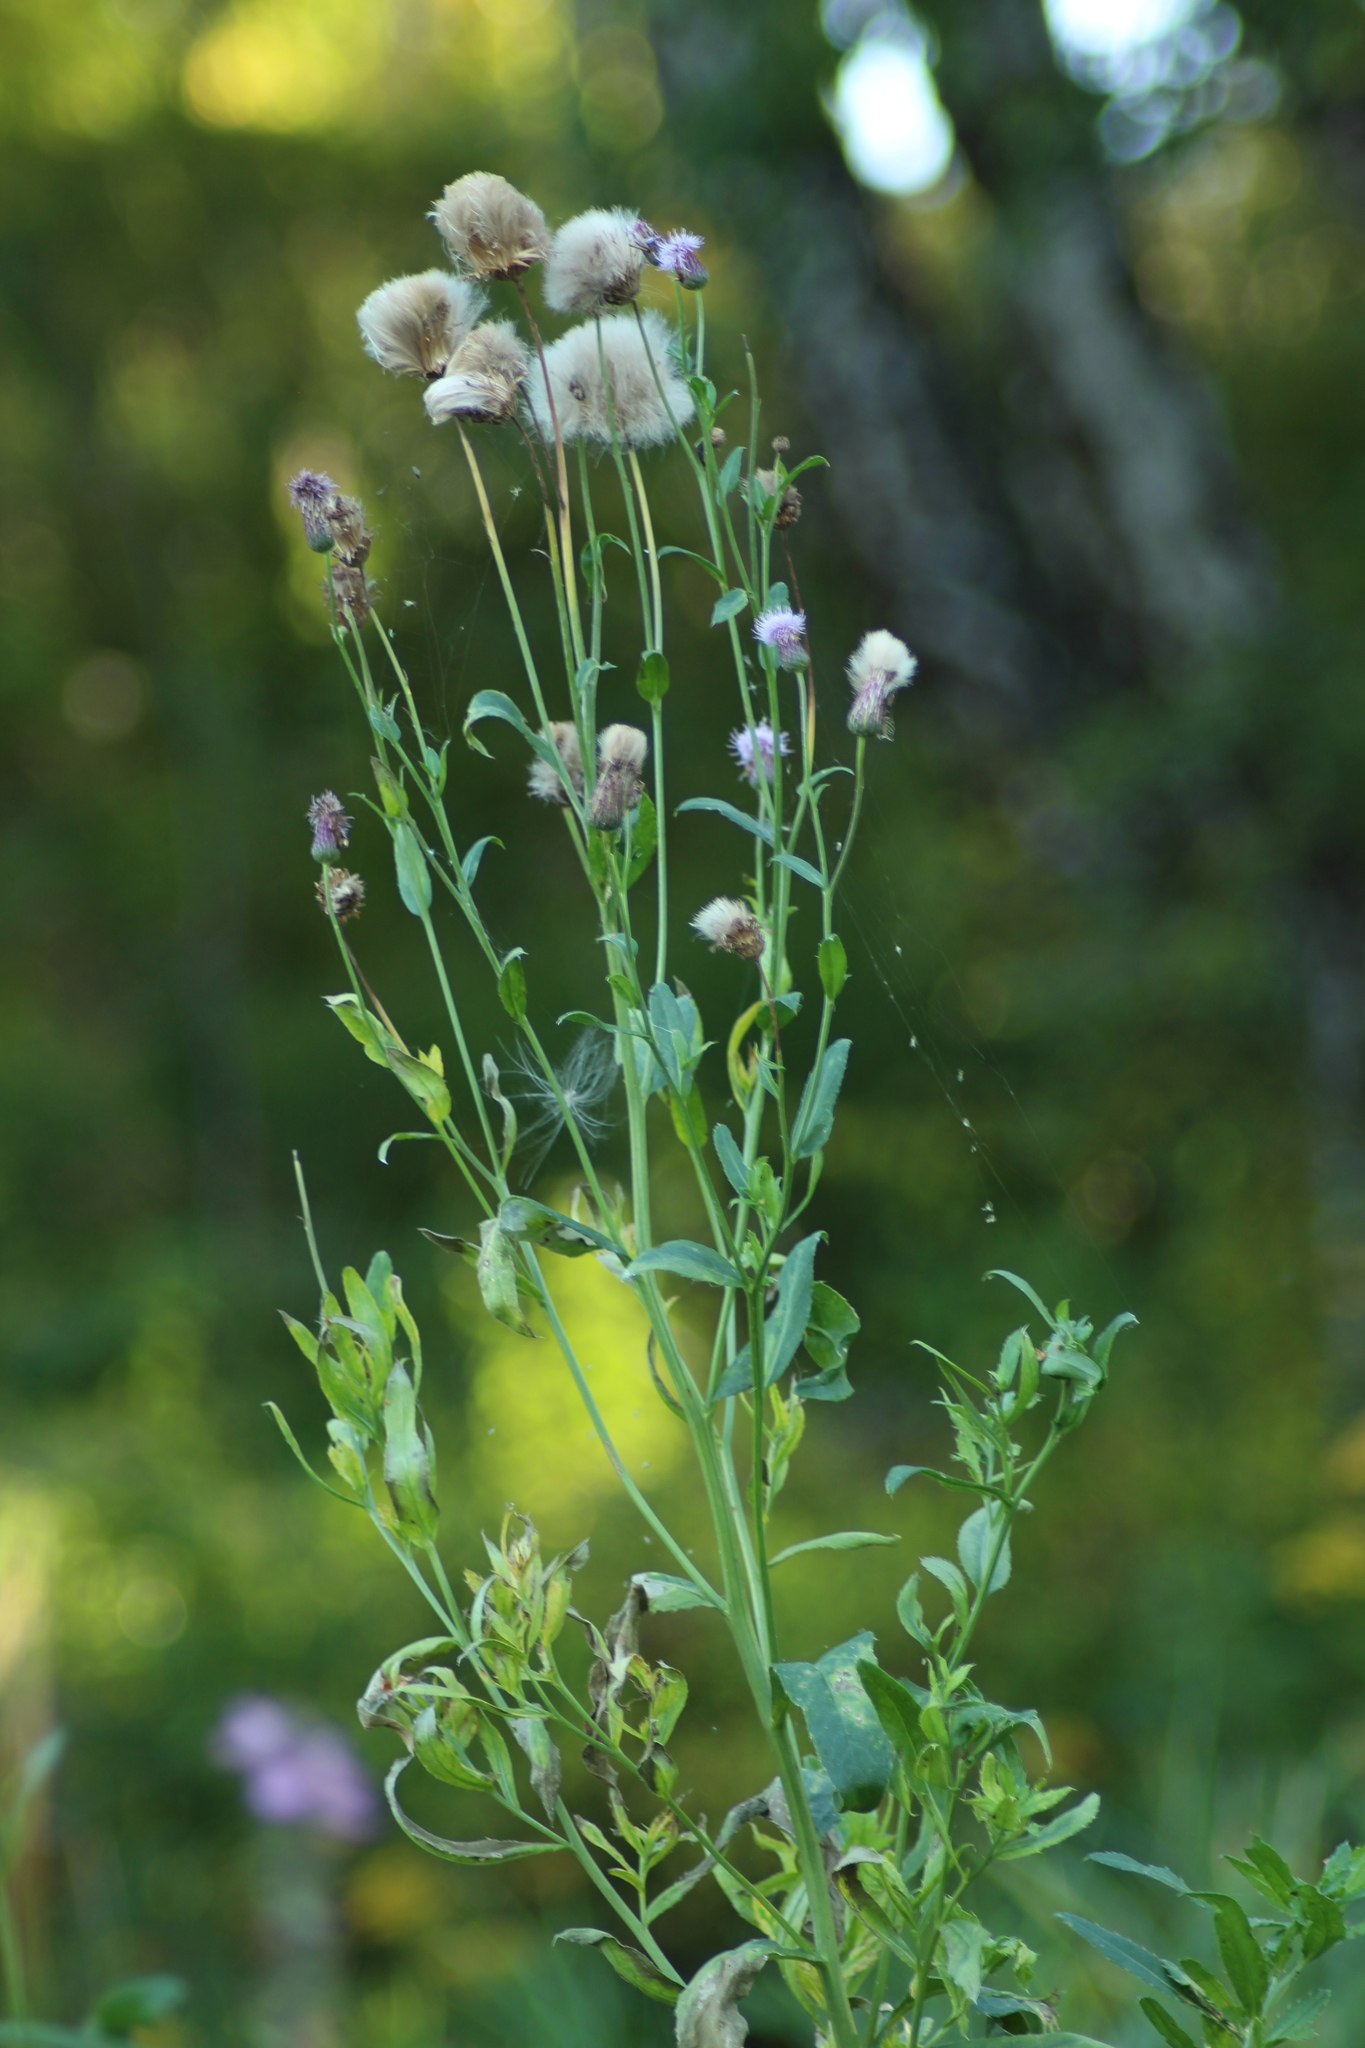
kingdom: Plantae
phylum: Tracheophyta
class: Magnoliopsida
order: Asterales
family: Asteraceae
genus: Cirsium
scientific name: Cirsium arvense
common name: Creeping thistle
